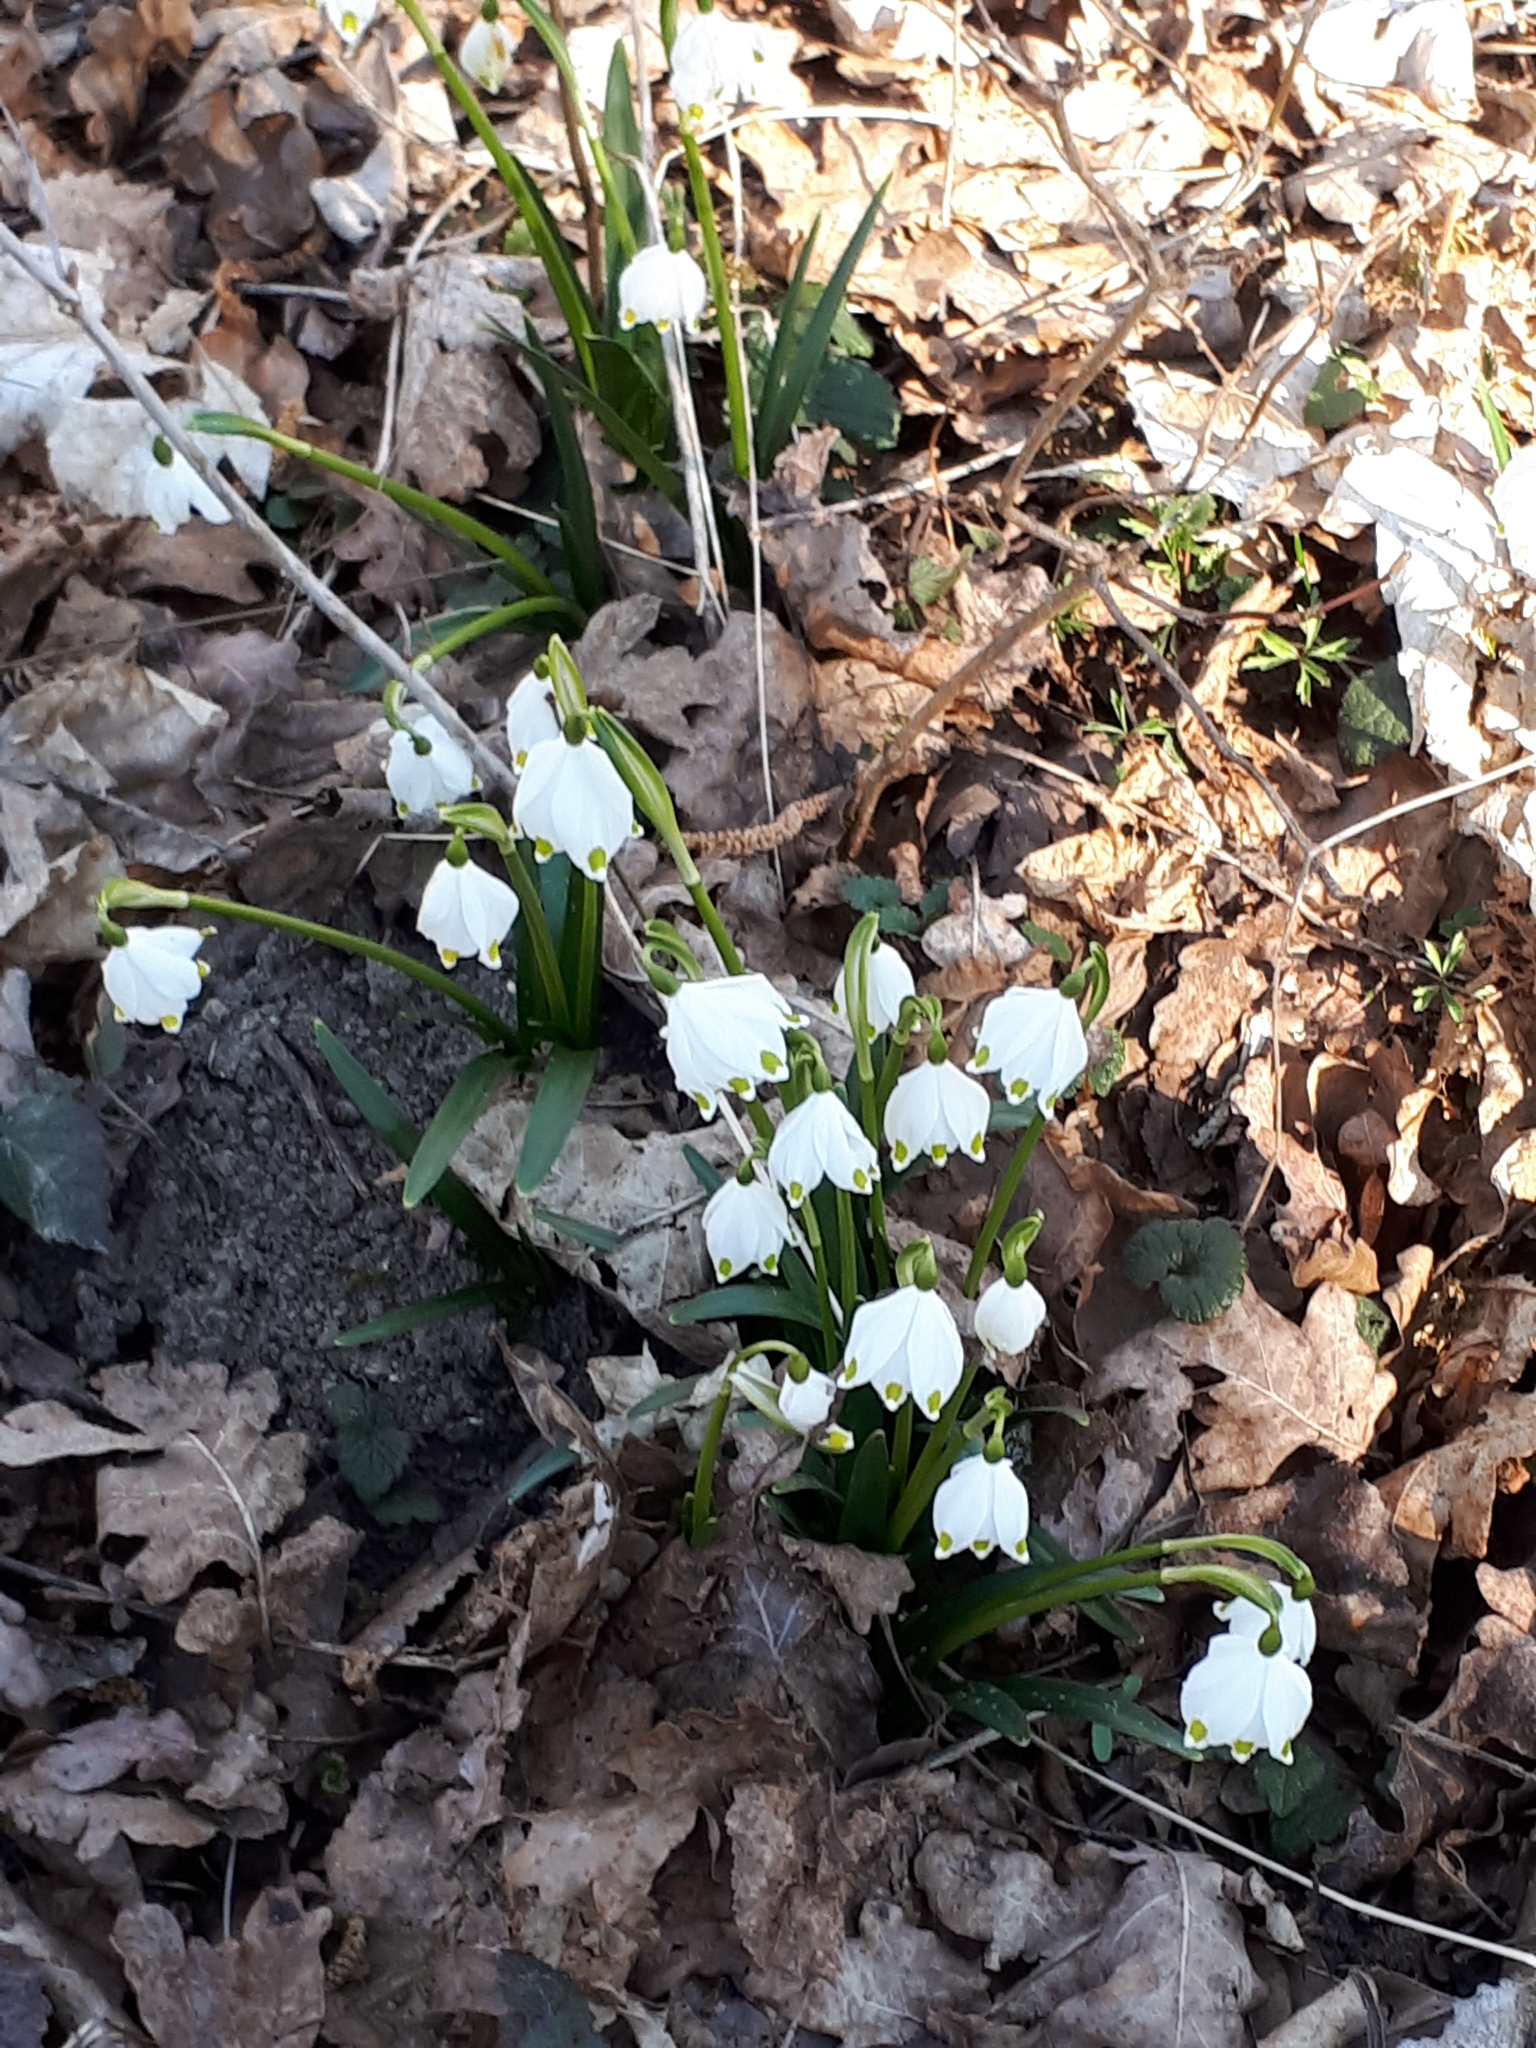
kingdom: Plantae
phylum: Tracheophyta
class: Liliopsida
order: Asparagales
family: Amaryllidaceae
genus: Leucojum
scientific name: Leucojum vernum
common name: Spring snowflake
